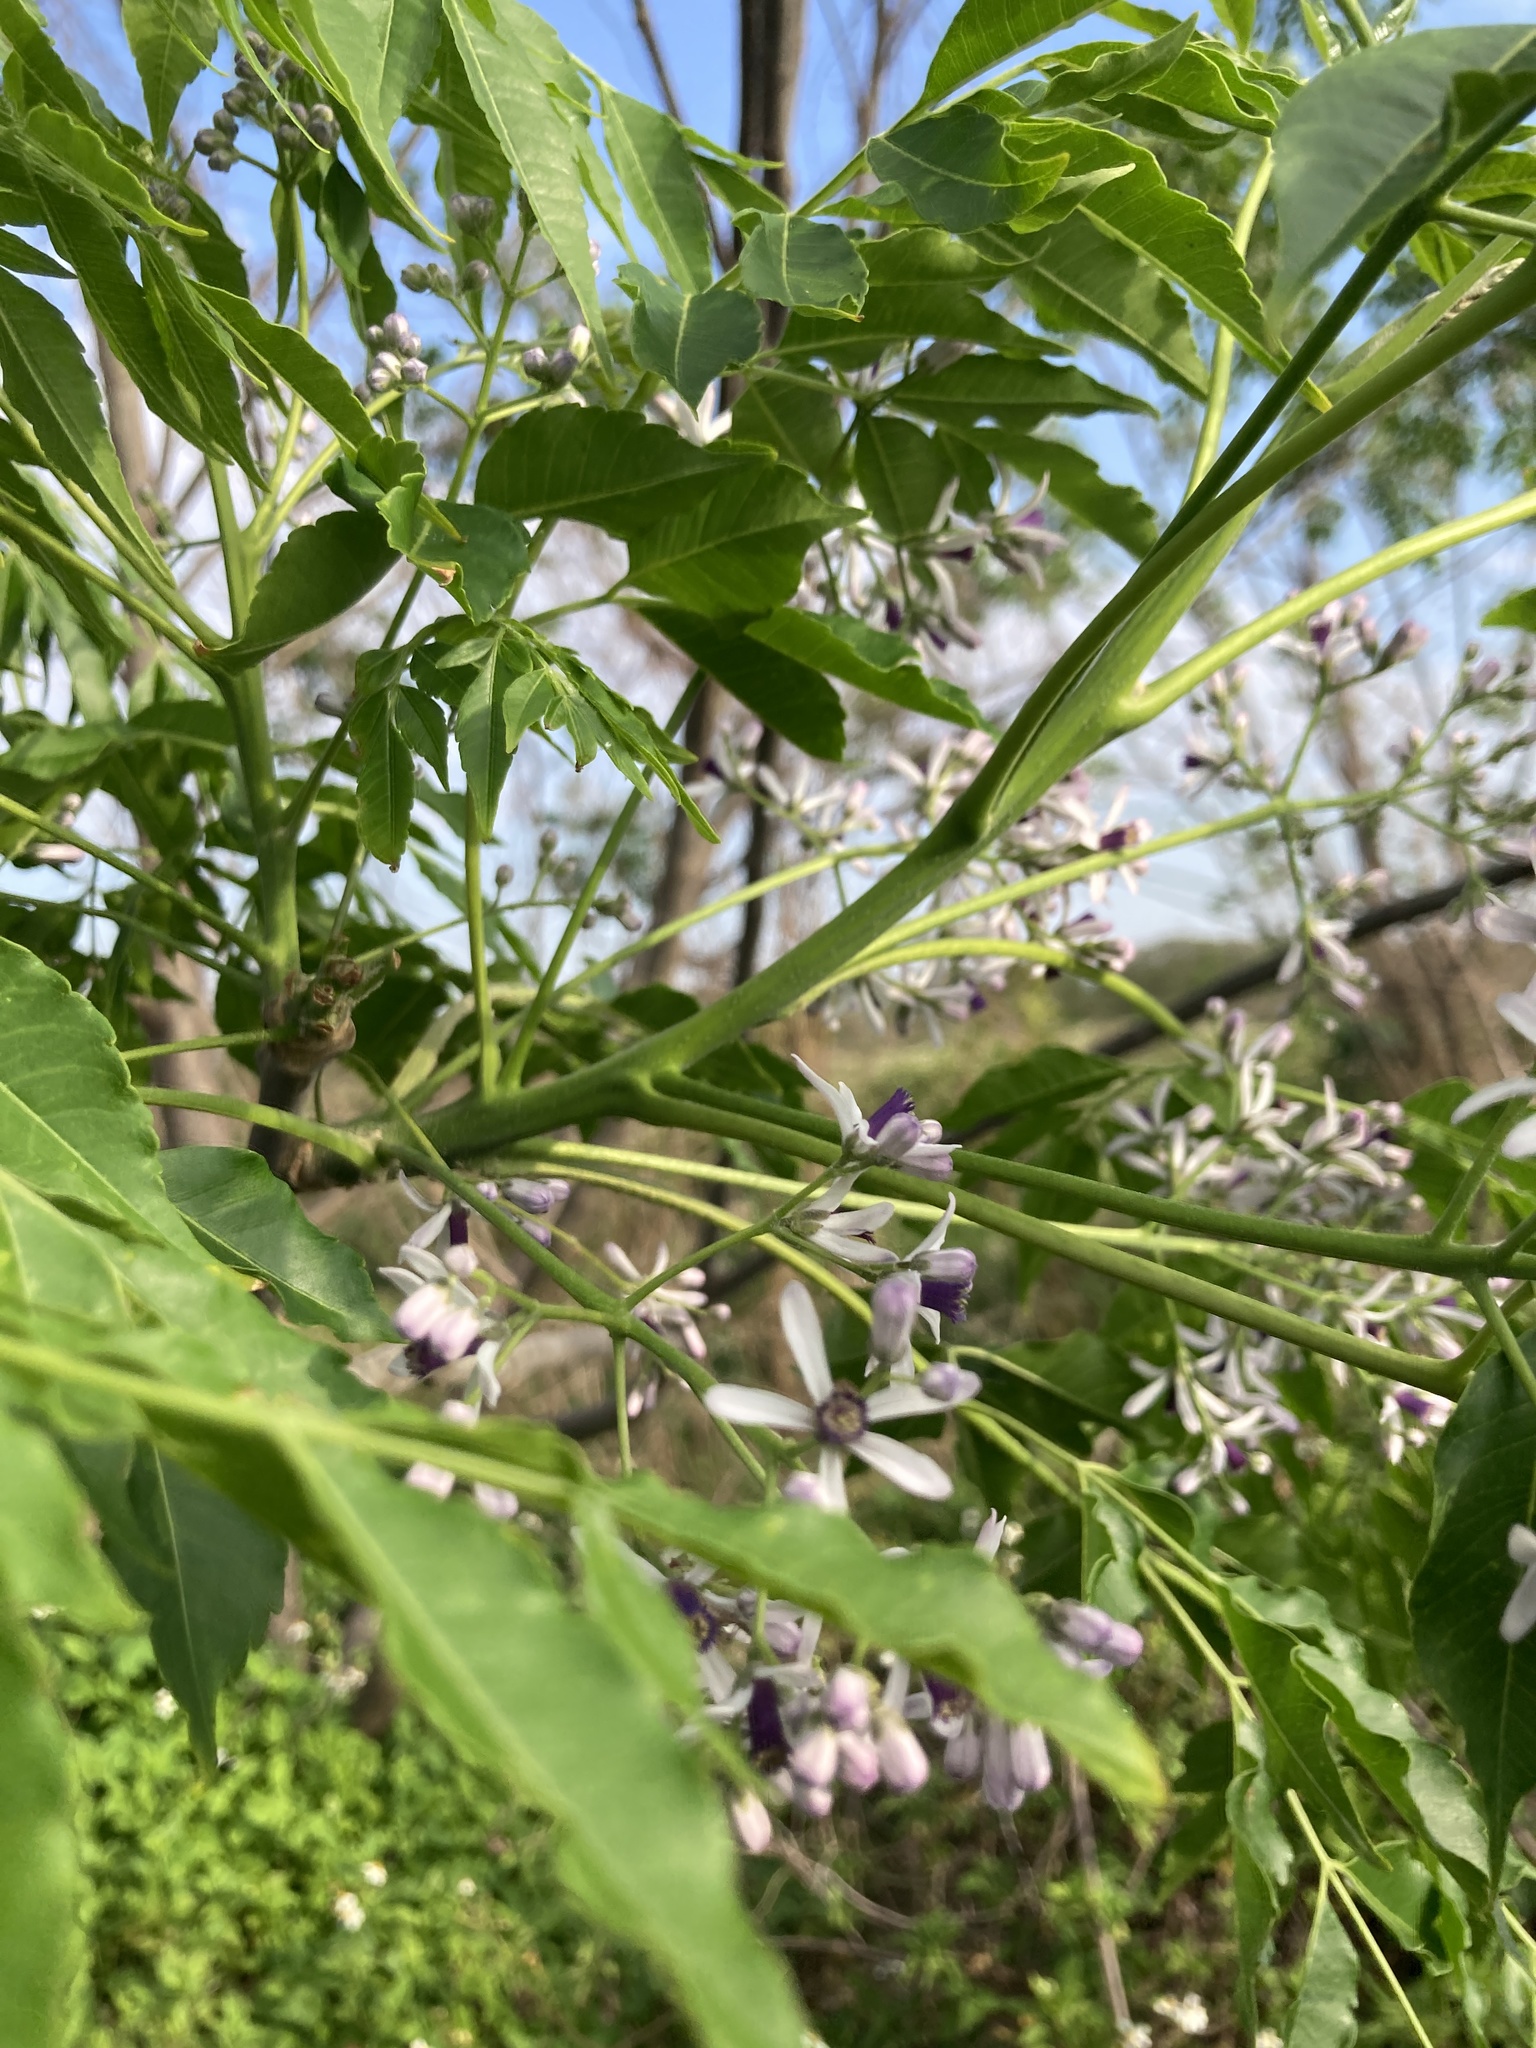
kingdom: Plantae
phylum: Tracheophyta
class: Magnoliopsida
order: Sapindales
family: Meliaceae
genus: Melia
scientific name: Melia azedarach
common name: Chinaberrytree
